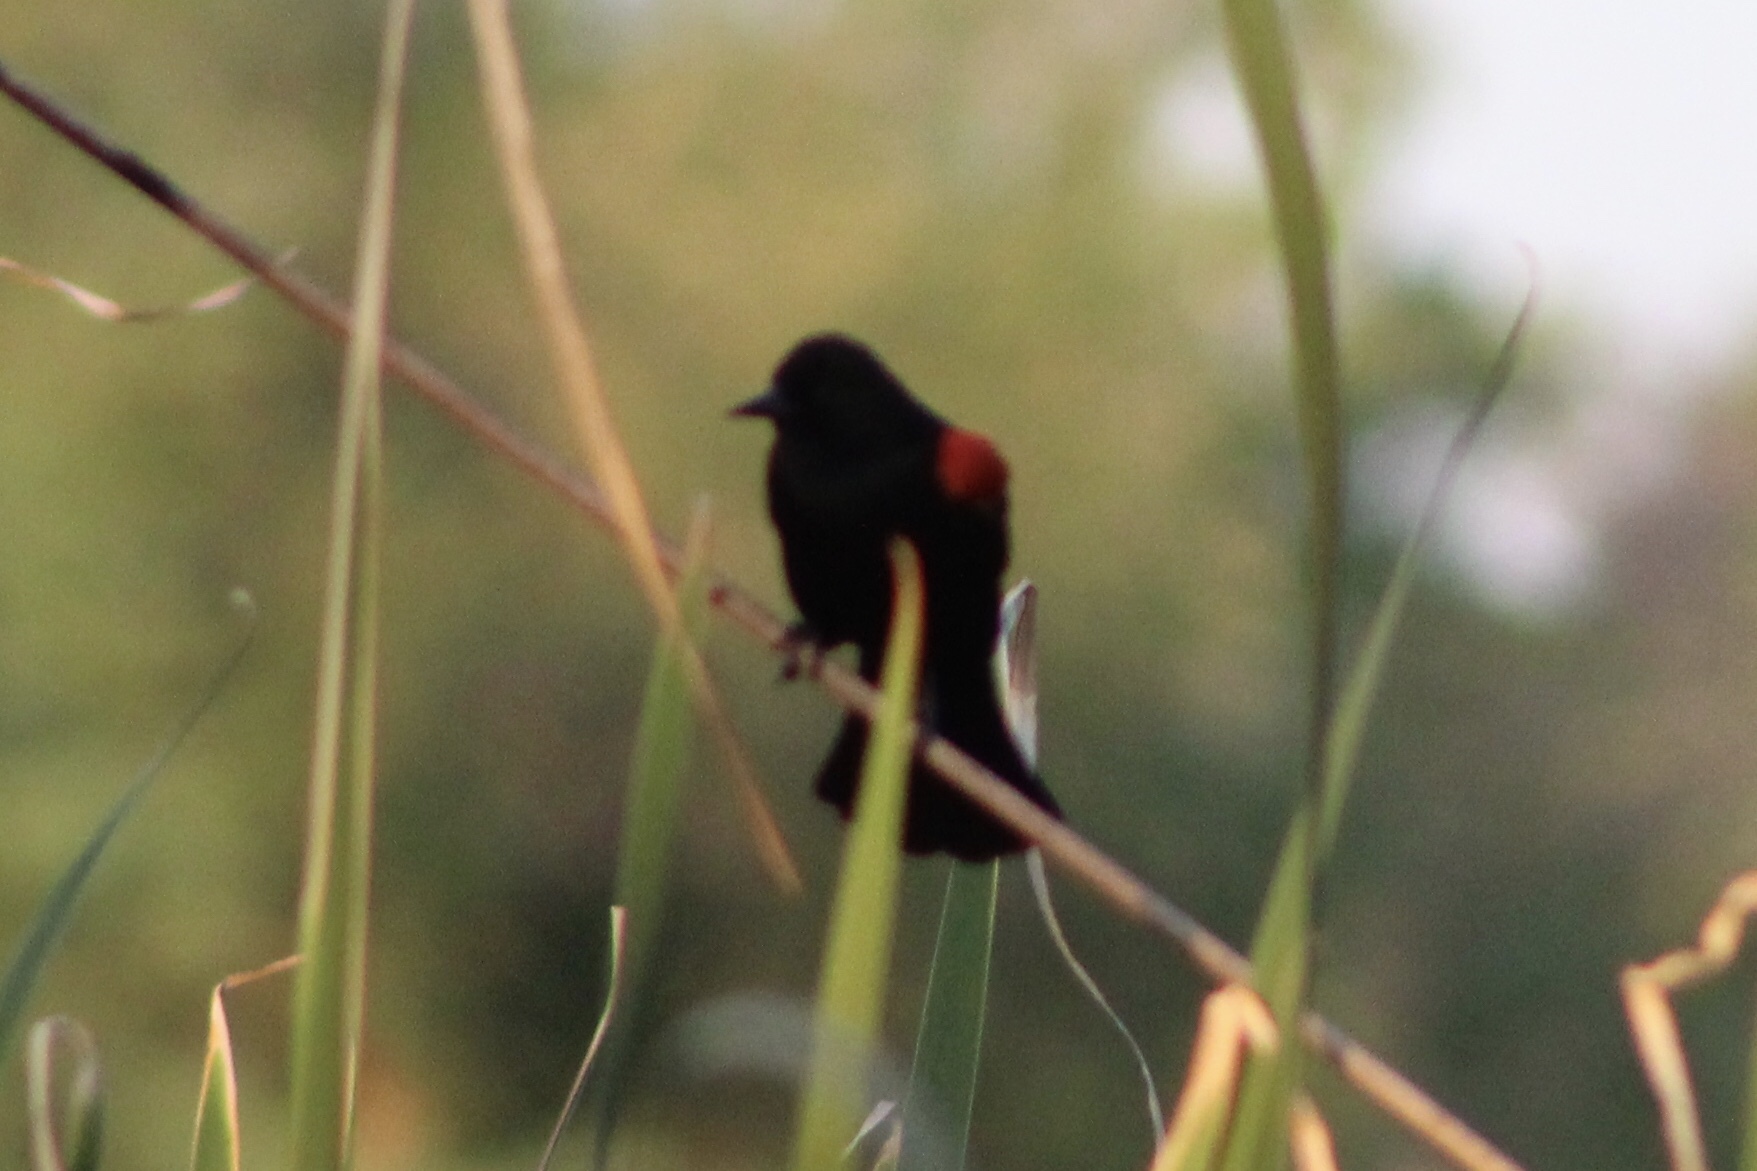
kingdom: Animalia
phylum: Chordata
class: Aves
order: Passeriformes
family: Icteridae
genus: Agelaius
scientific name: Agelaius phoeniceus
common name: Red-winged blackbird
